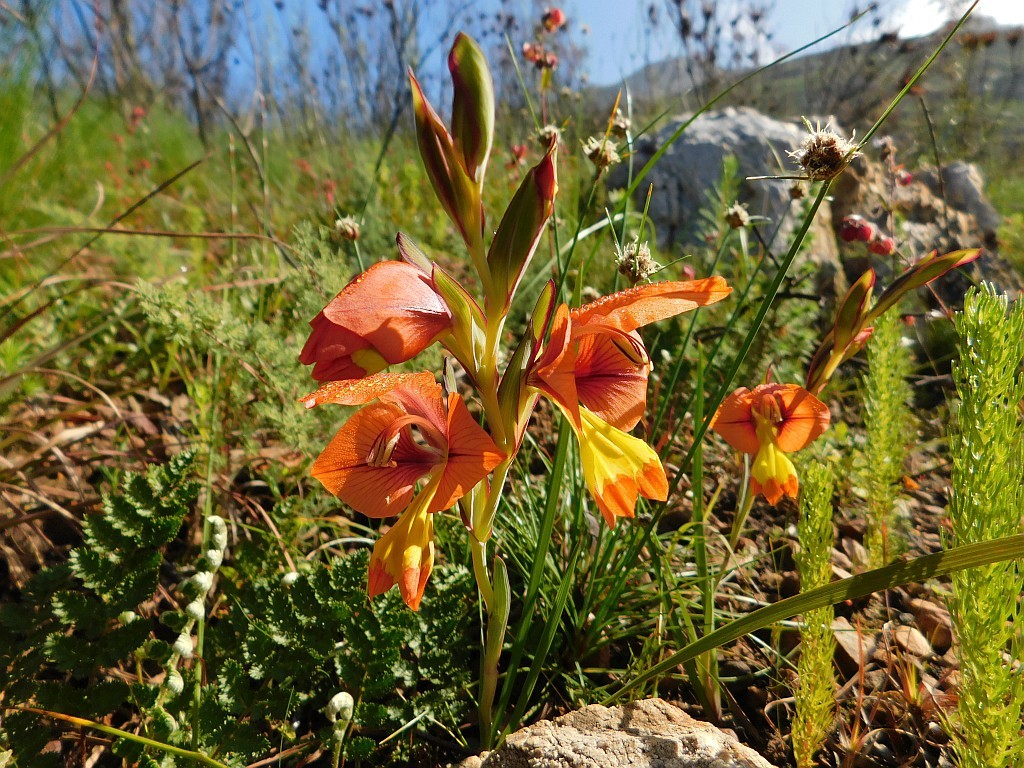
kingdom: Plantae
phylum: Tracheophyta
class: Liliopsida
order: Asparagales
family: Iridaceae
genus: Gladiolus
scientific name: Gladiolus speciosus
